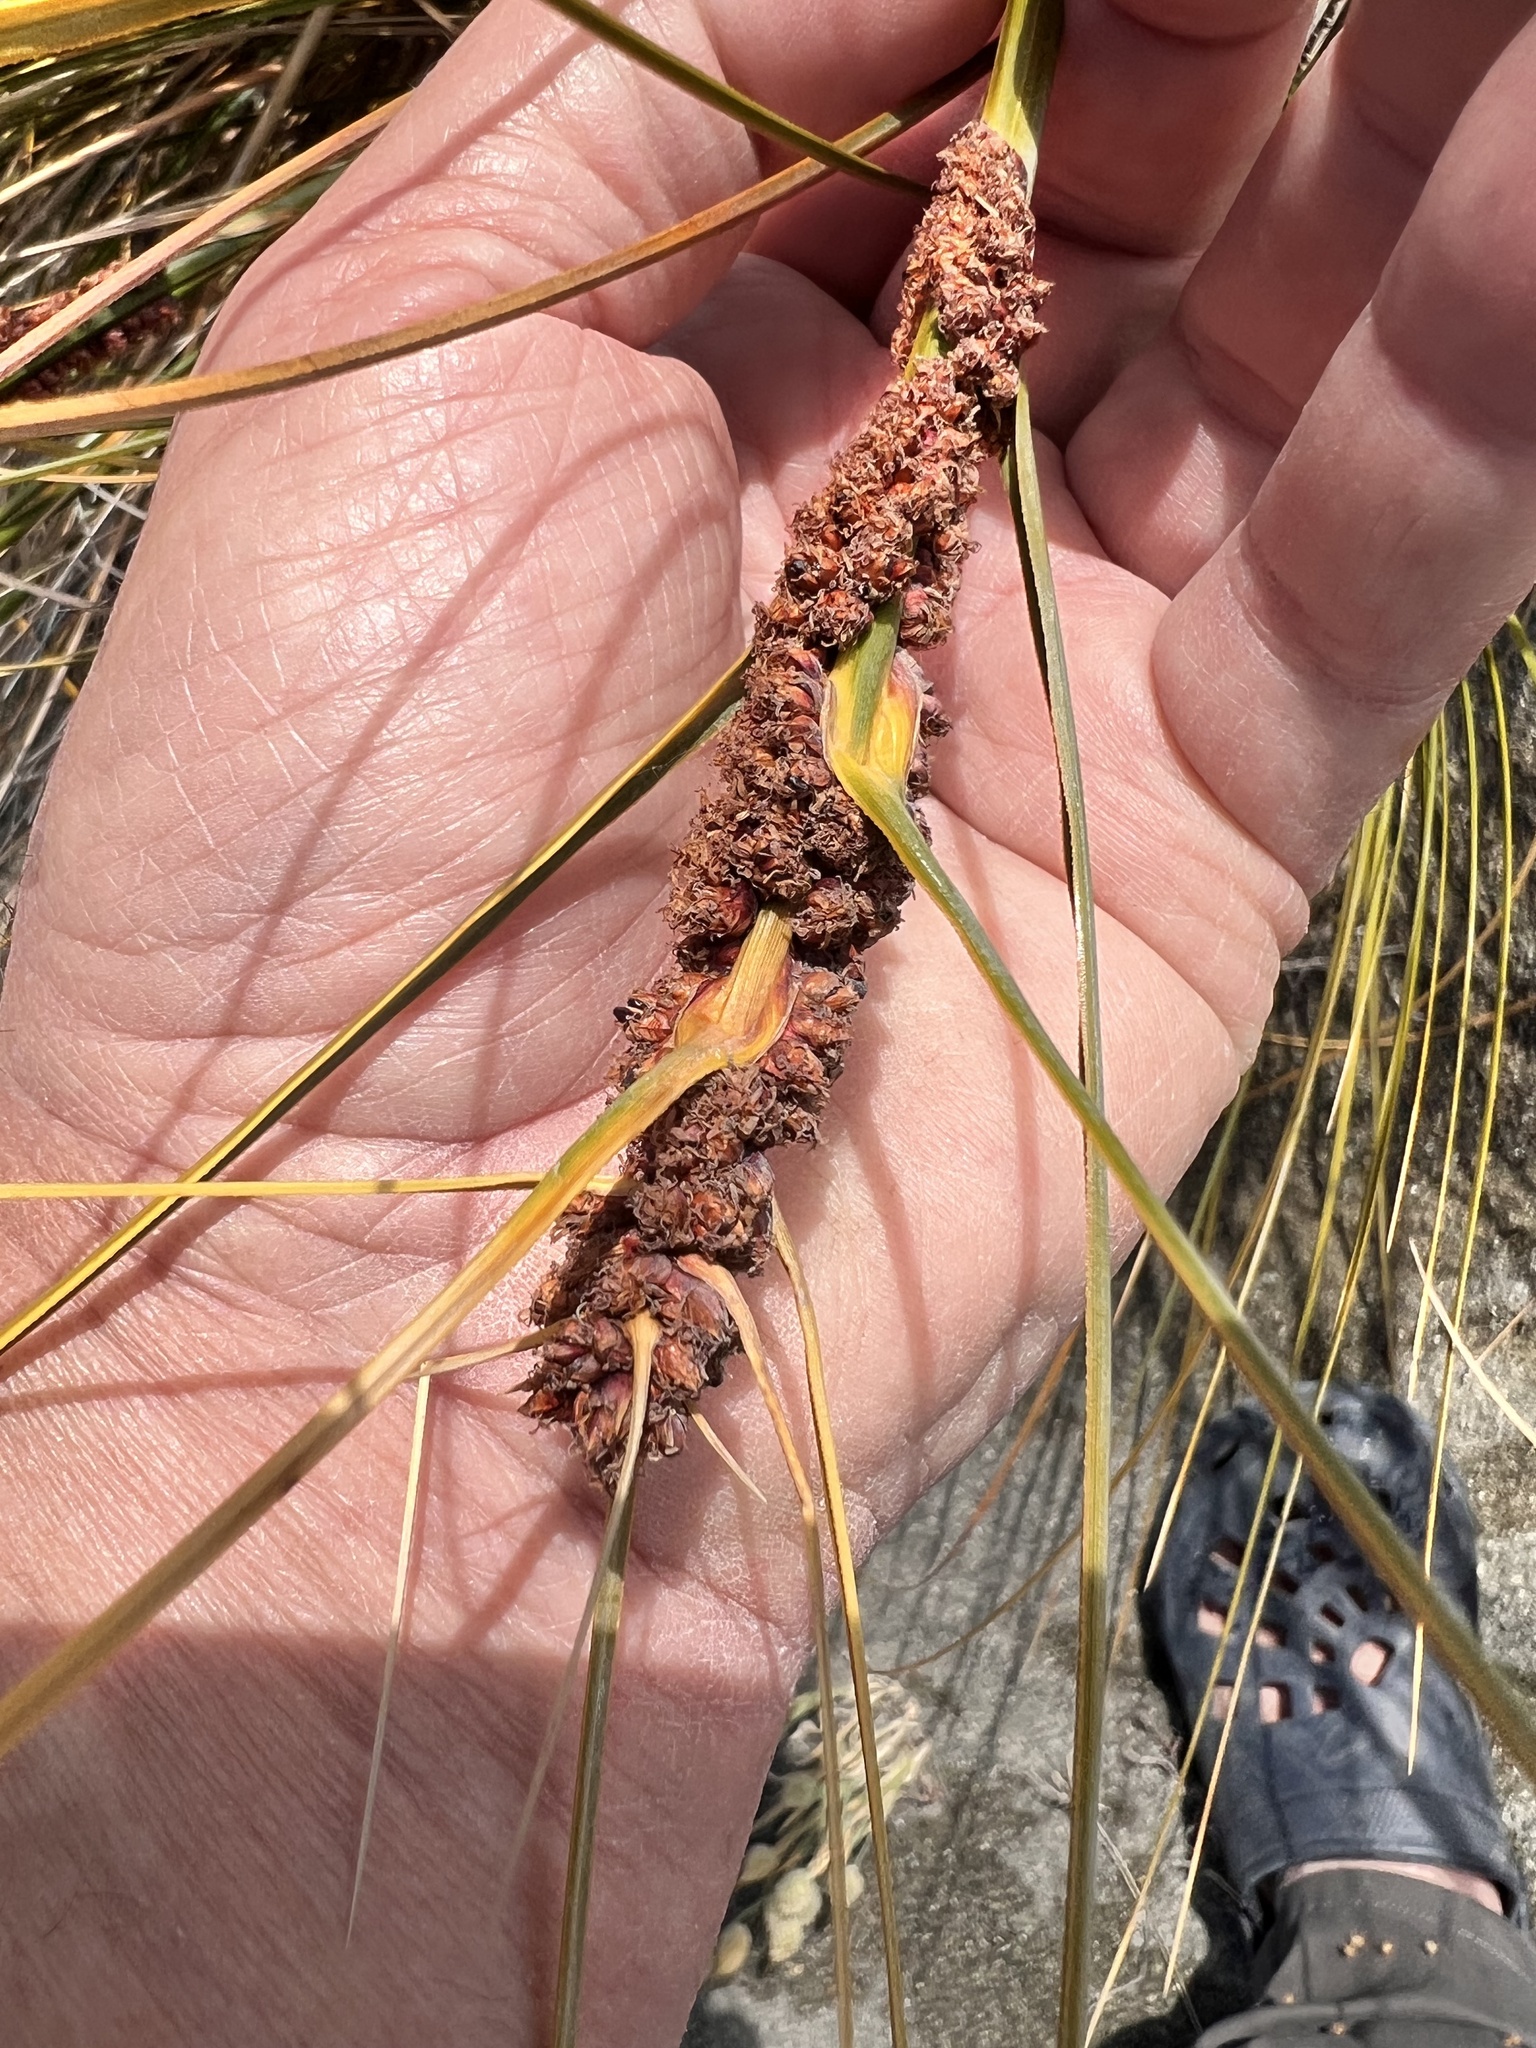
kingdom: Plantae
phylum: Tracheophyta
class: Liliopsida
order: Poales
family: Cyperaceae
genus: Ficinia
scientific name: Ficinia spiralis
